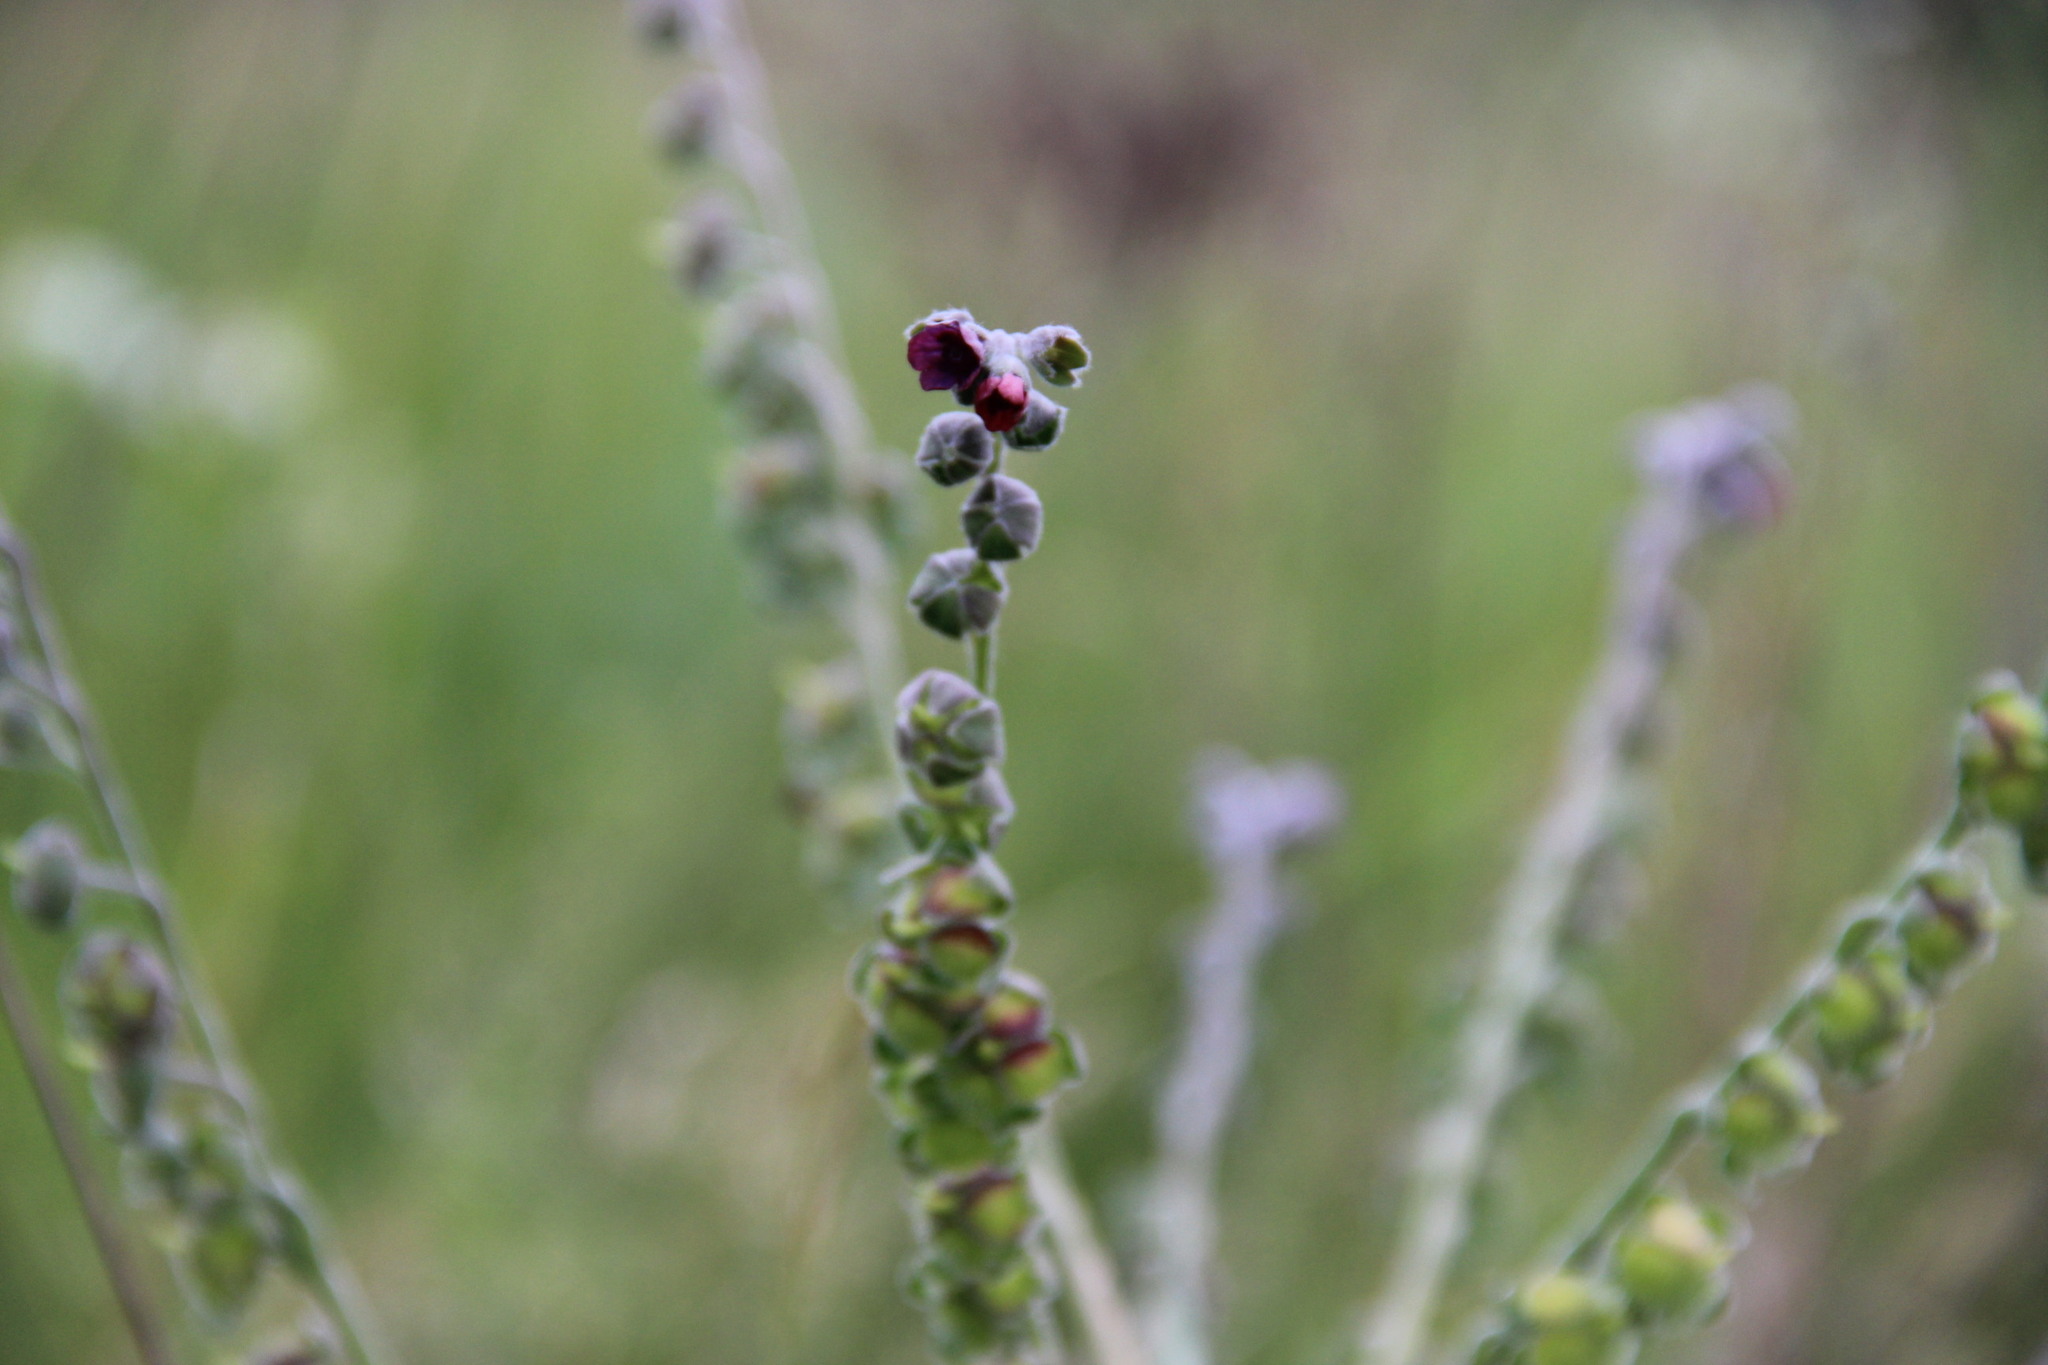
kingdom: Plantae
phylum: Tracheophyta
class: Magnoliopsida
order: Boraginales
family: Boraginaceae
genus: Cynoglossum
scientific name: Cynoglossum officinale
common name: Hound's-tongue
